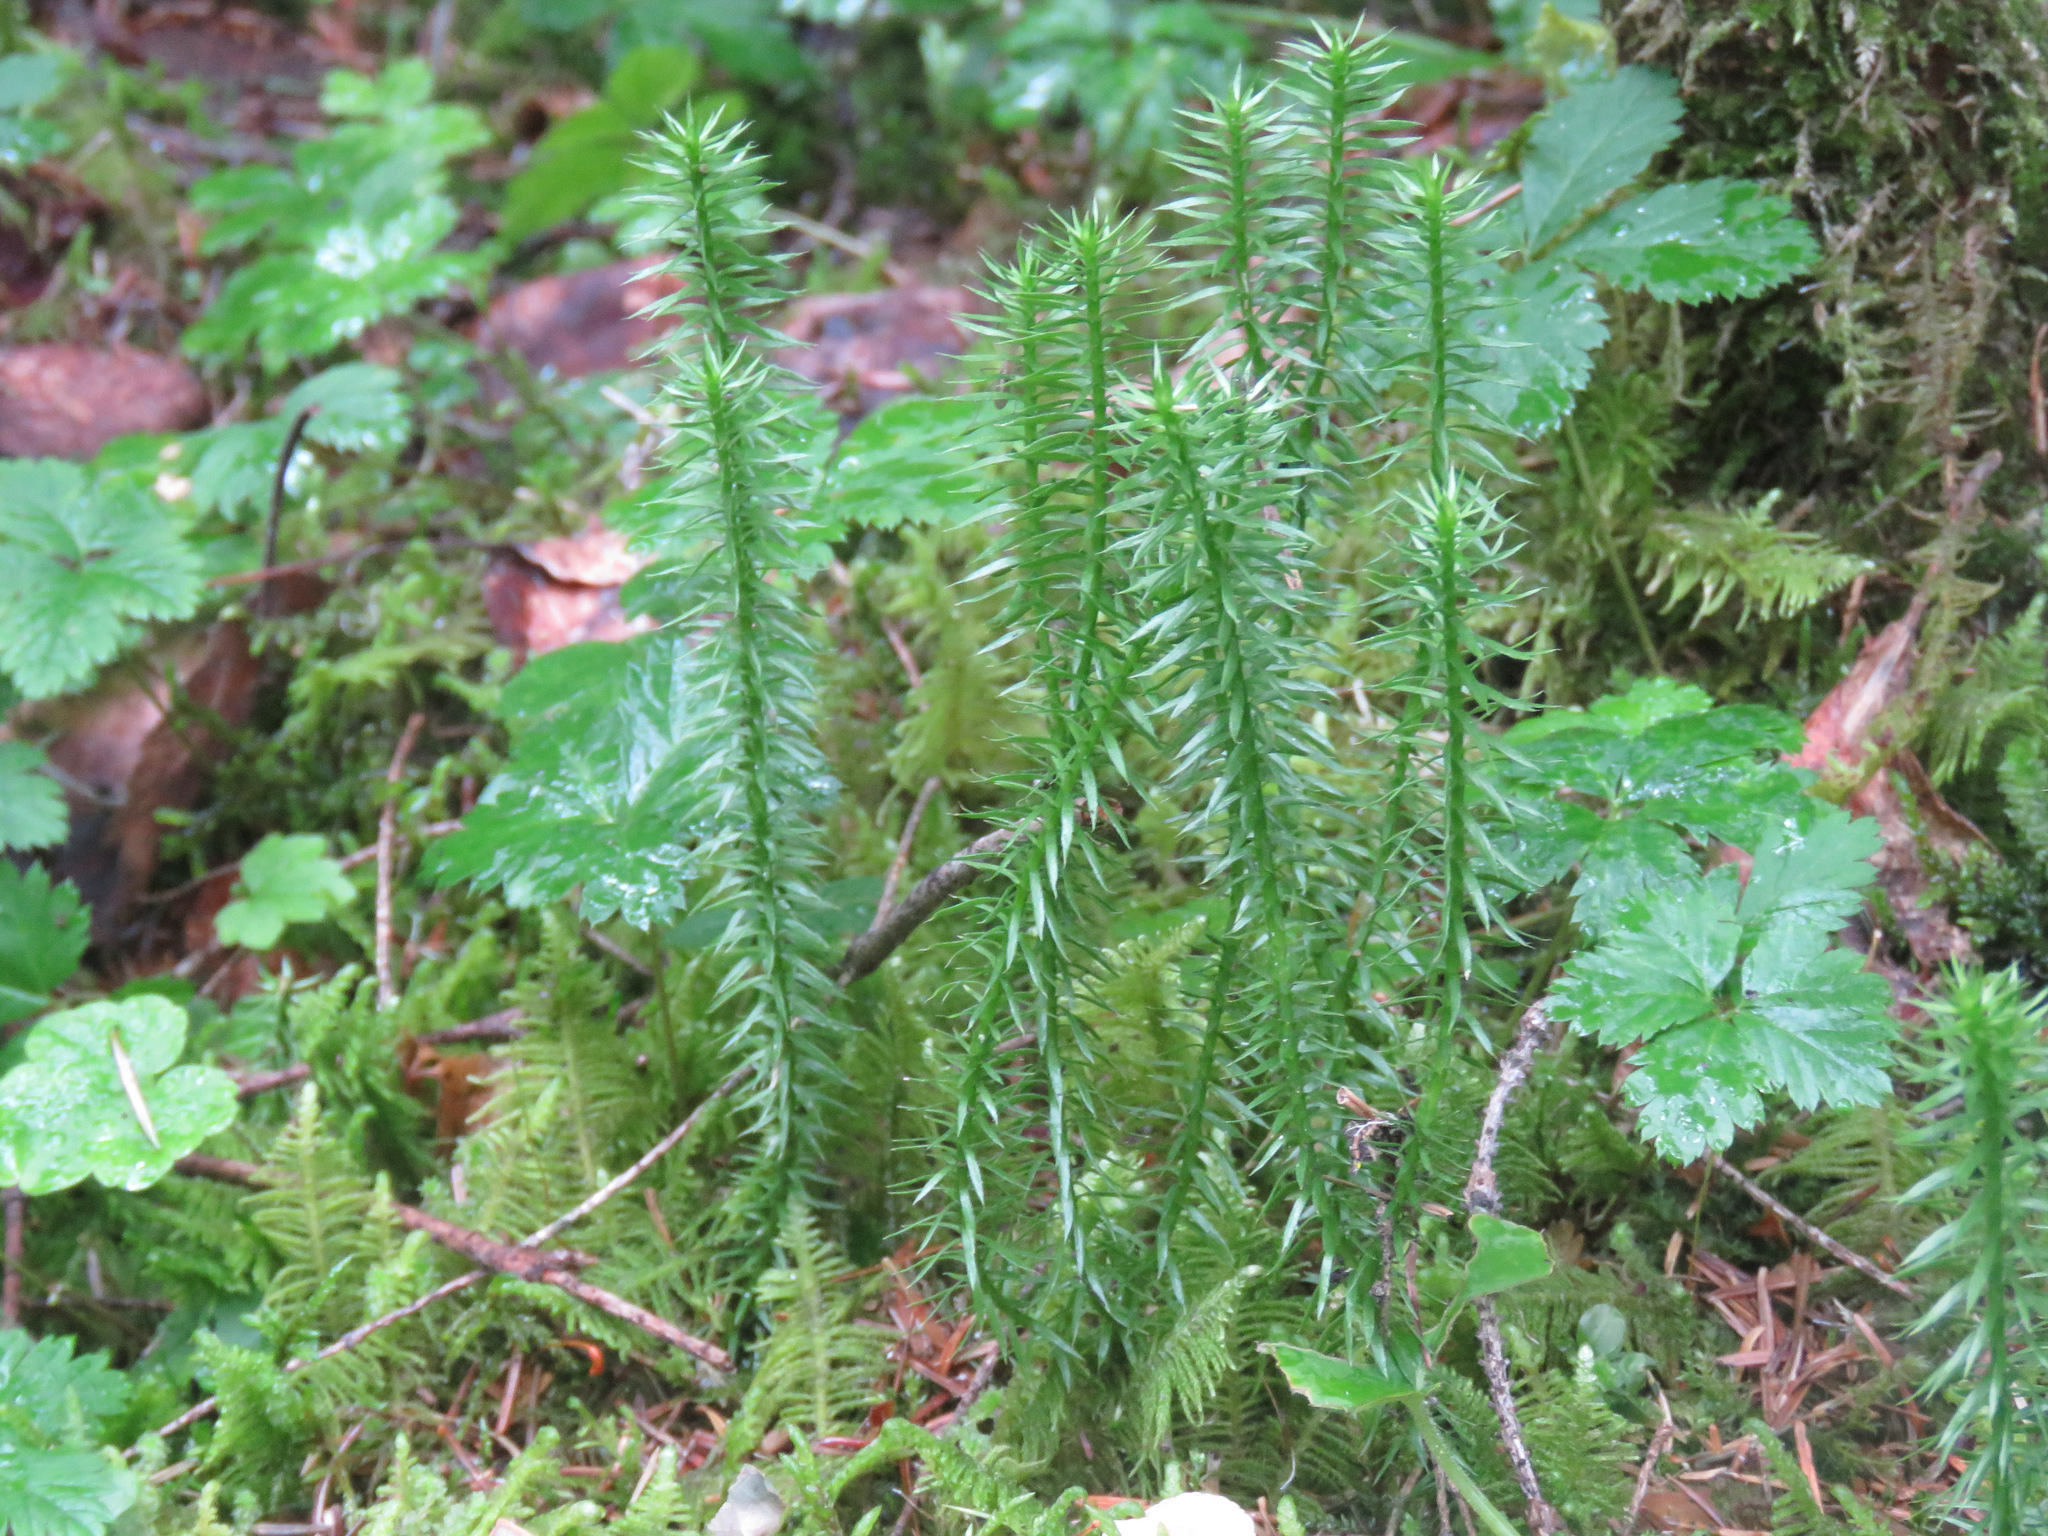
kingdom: Plantae
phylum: Tracheophyta
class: Lycopodiopsida
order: Lycopodiales
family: Lycopodiaceae
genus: Spinulum
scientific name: Spinulum annotinum
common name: Interrupted club-moss
